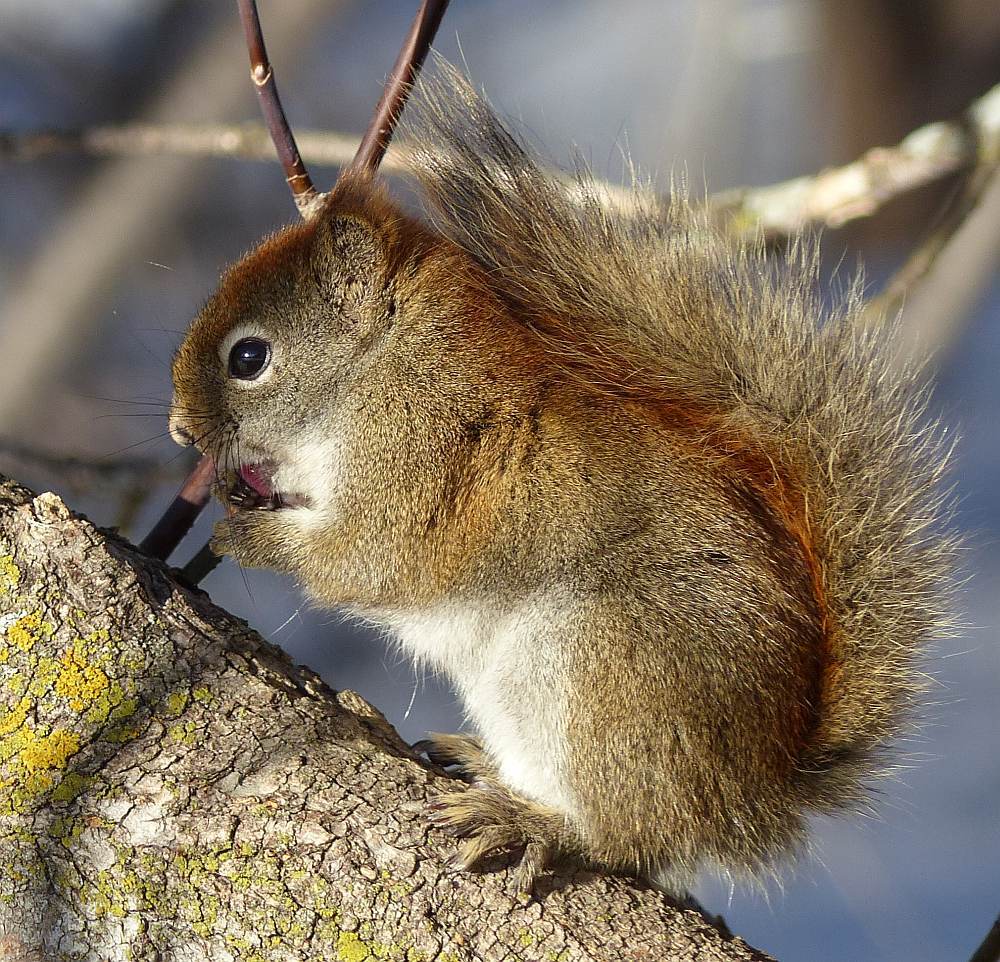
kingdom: Animalia
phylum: Chordata
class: Mammalia
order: Rodentia
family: Sciuridae
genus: Tamiasciurus
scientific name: Tamiasciurus hudsonicus
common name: Red squirrel
